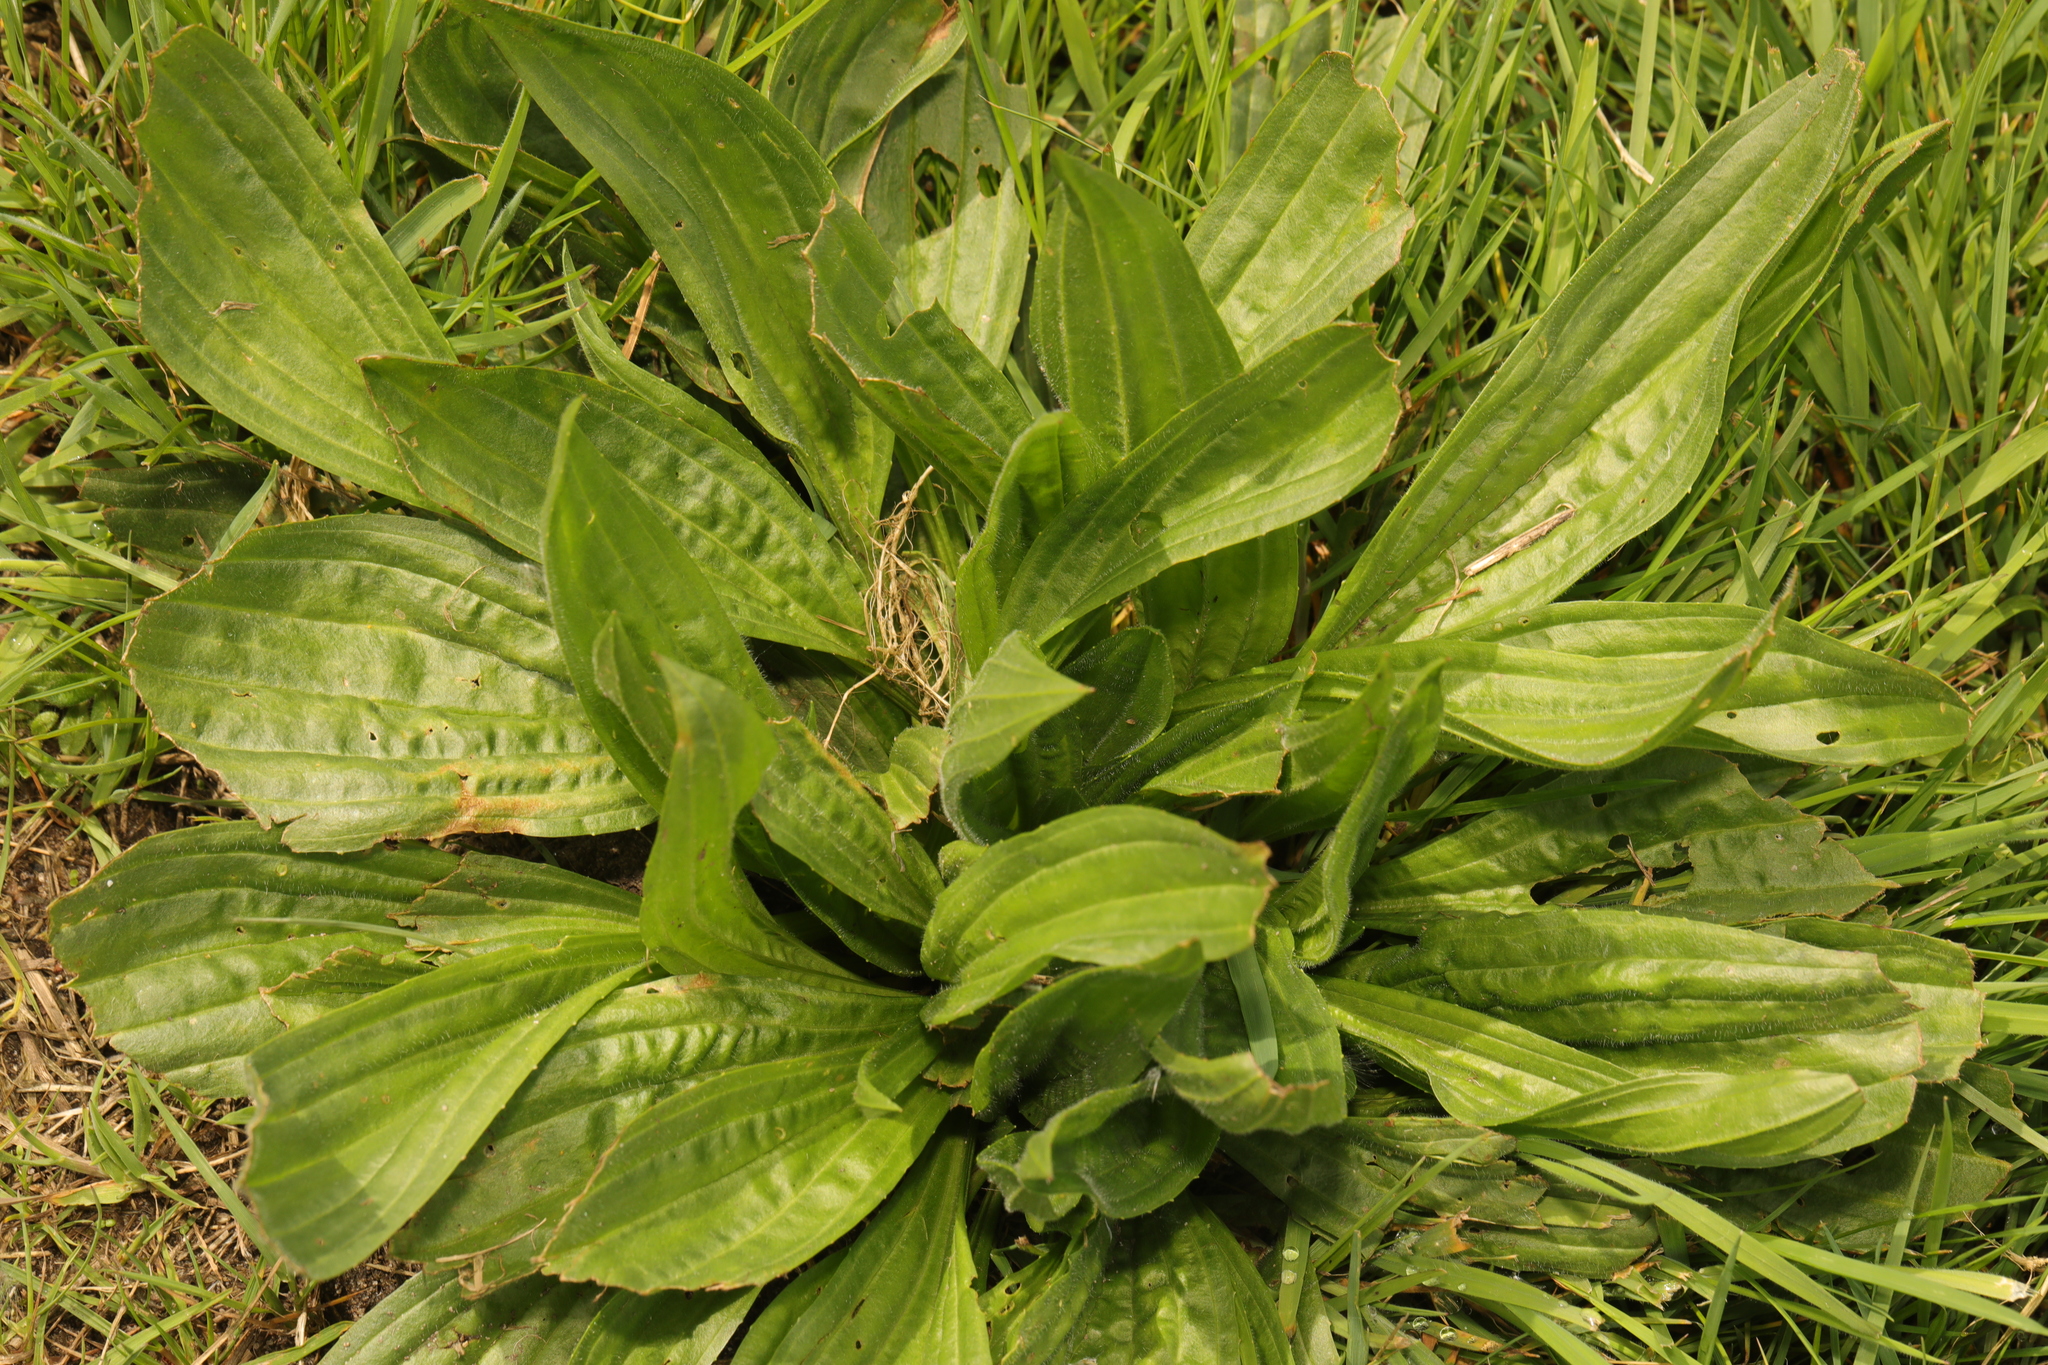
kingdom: Plantae
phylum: Tracheophyta
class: Magnoliopsida
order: Lamiales
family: Plantaginaceae
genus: Plantago
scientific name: Plantago lanceolata
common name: Ribwort plantain
